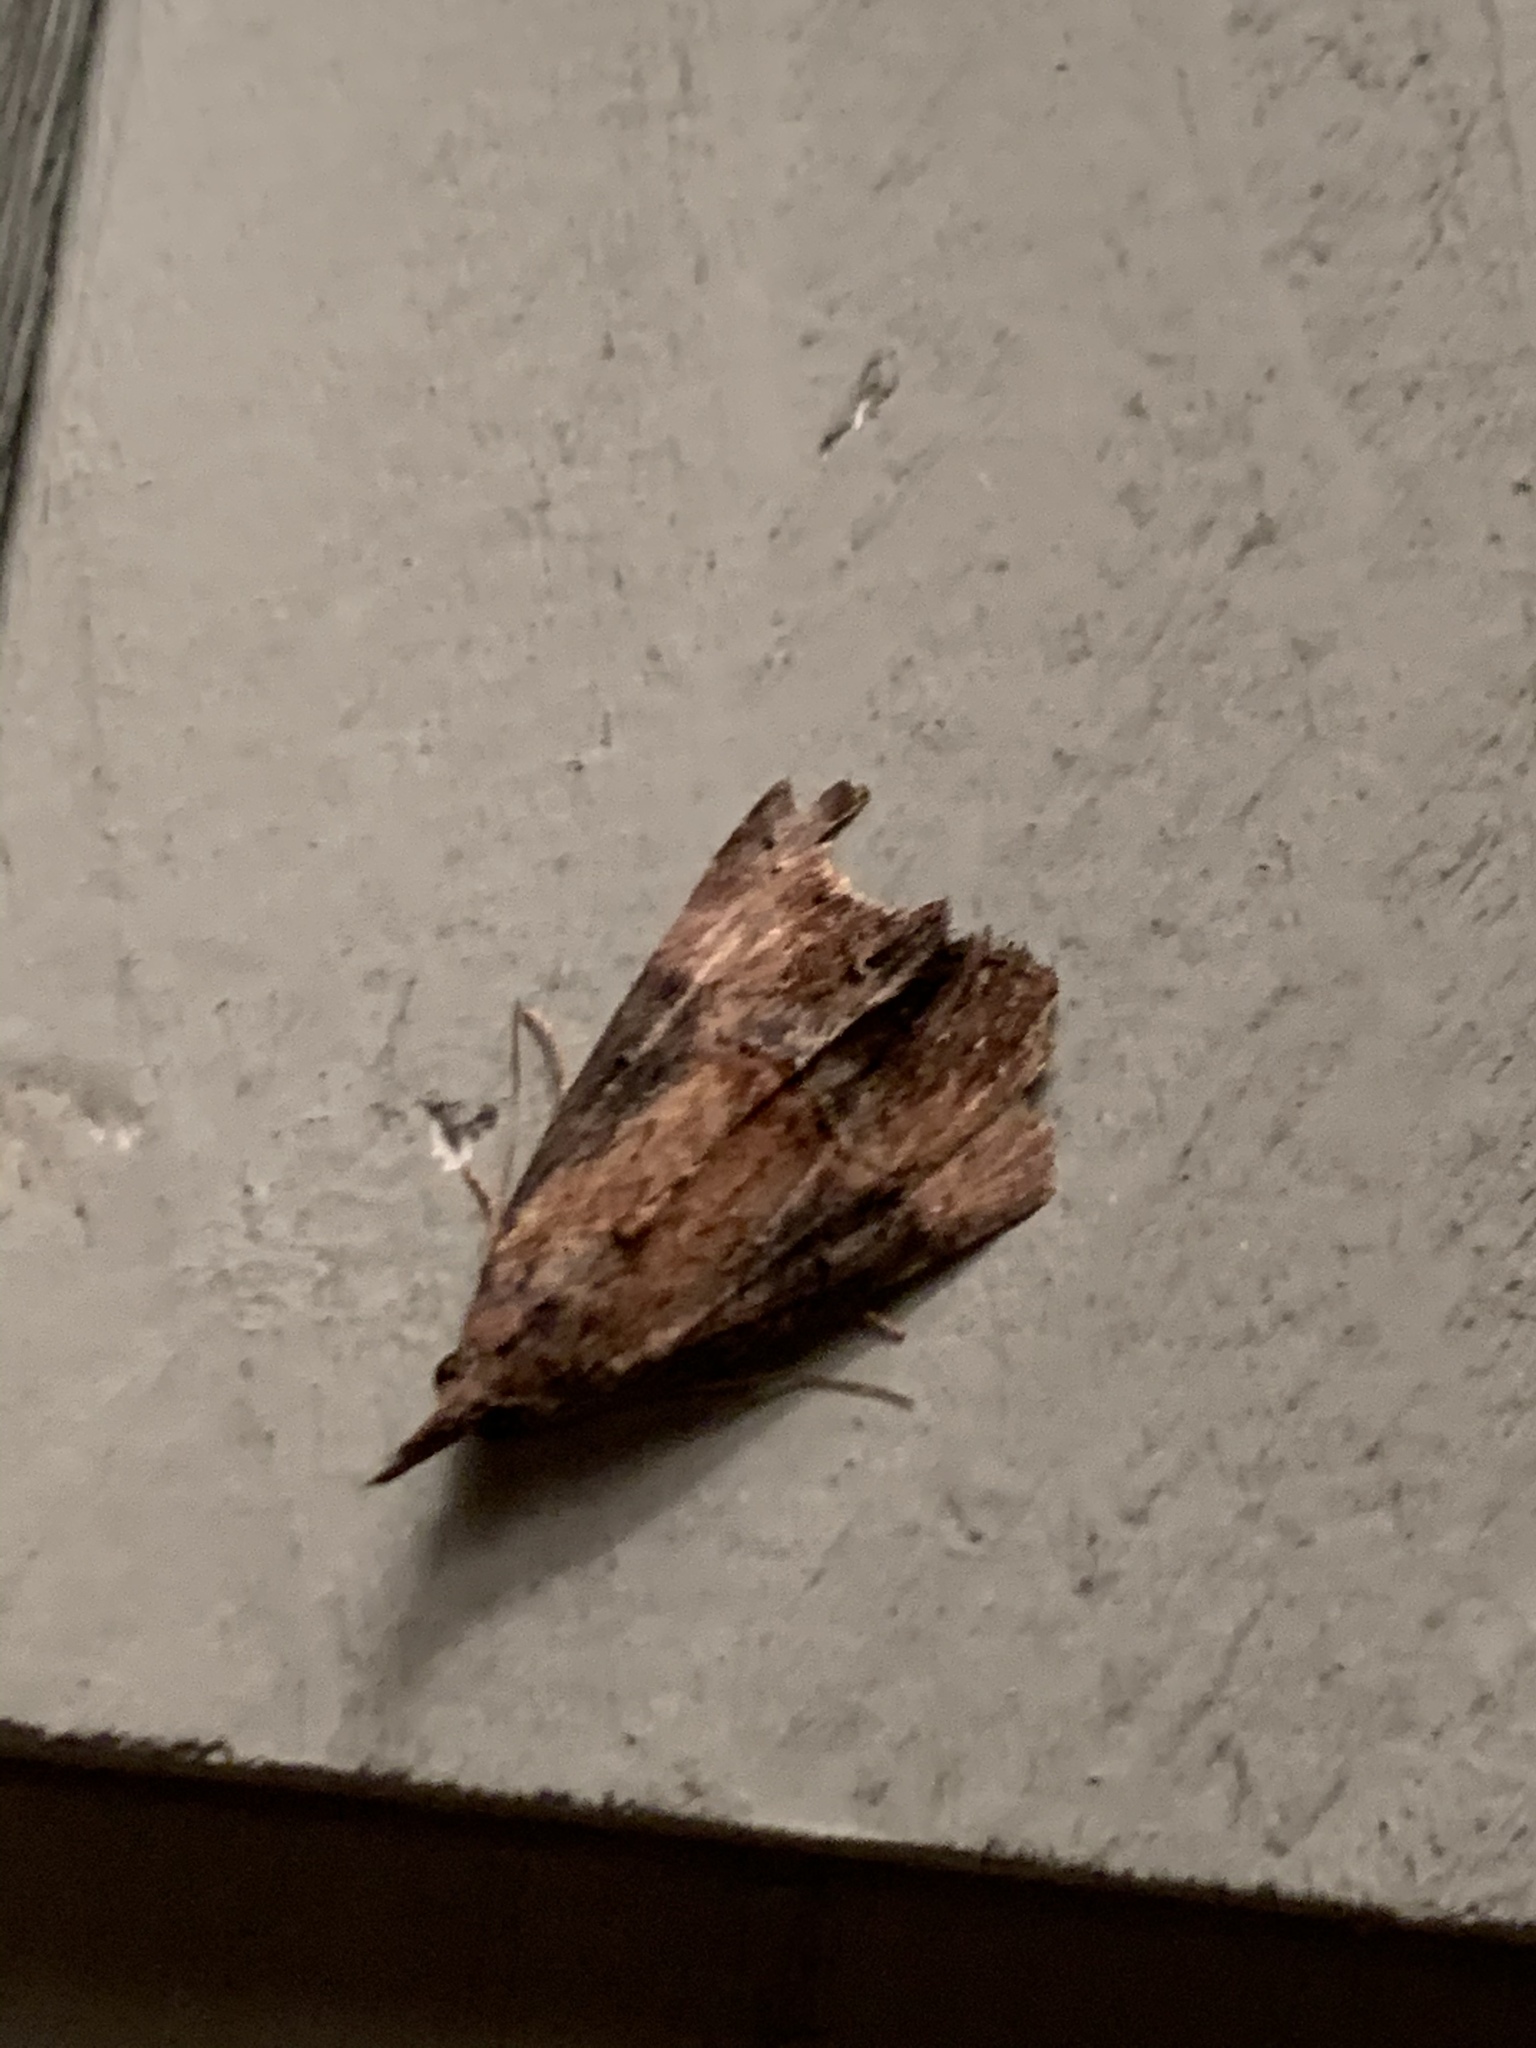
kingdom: Animalia
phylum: Arthropoda
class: Insecta
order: Lepidoptera
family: Erebidae
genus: Hypena
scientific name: Hypena scabra
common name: Green cloverworm
